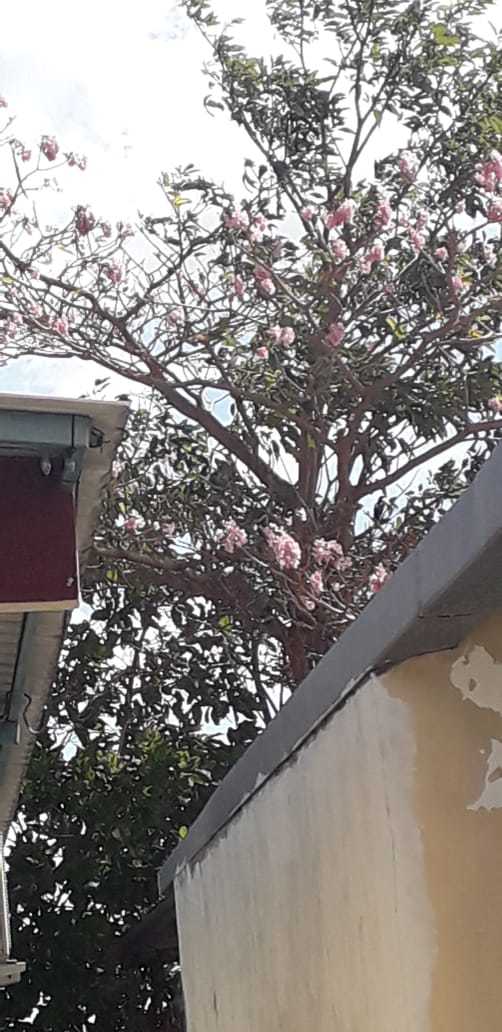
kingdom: Plantae
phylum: Tracheophyta
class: Magnoliopsida
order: Lamiales
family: Bignoniaceae
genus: Tabebuia
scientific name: Tabebuia rosea
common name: Pink poui
